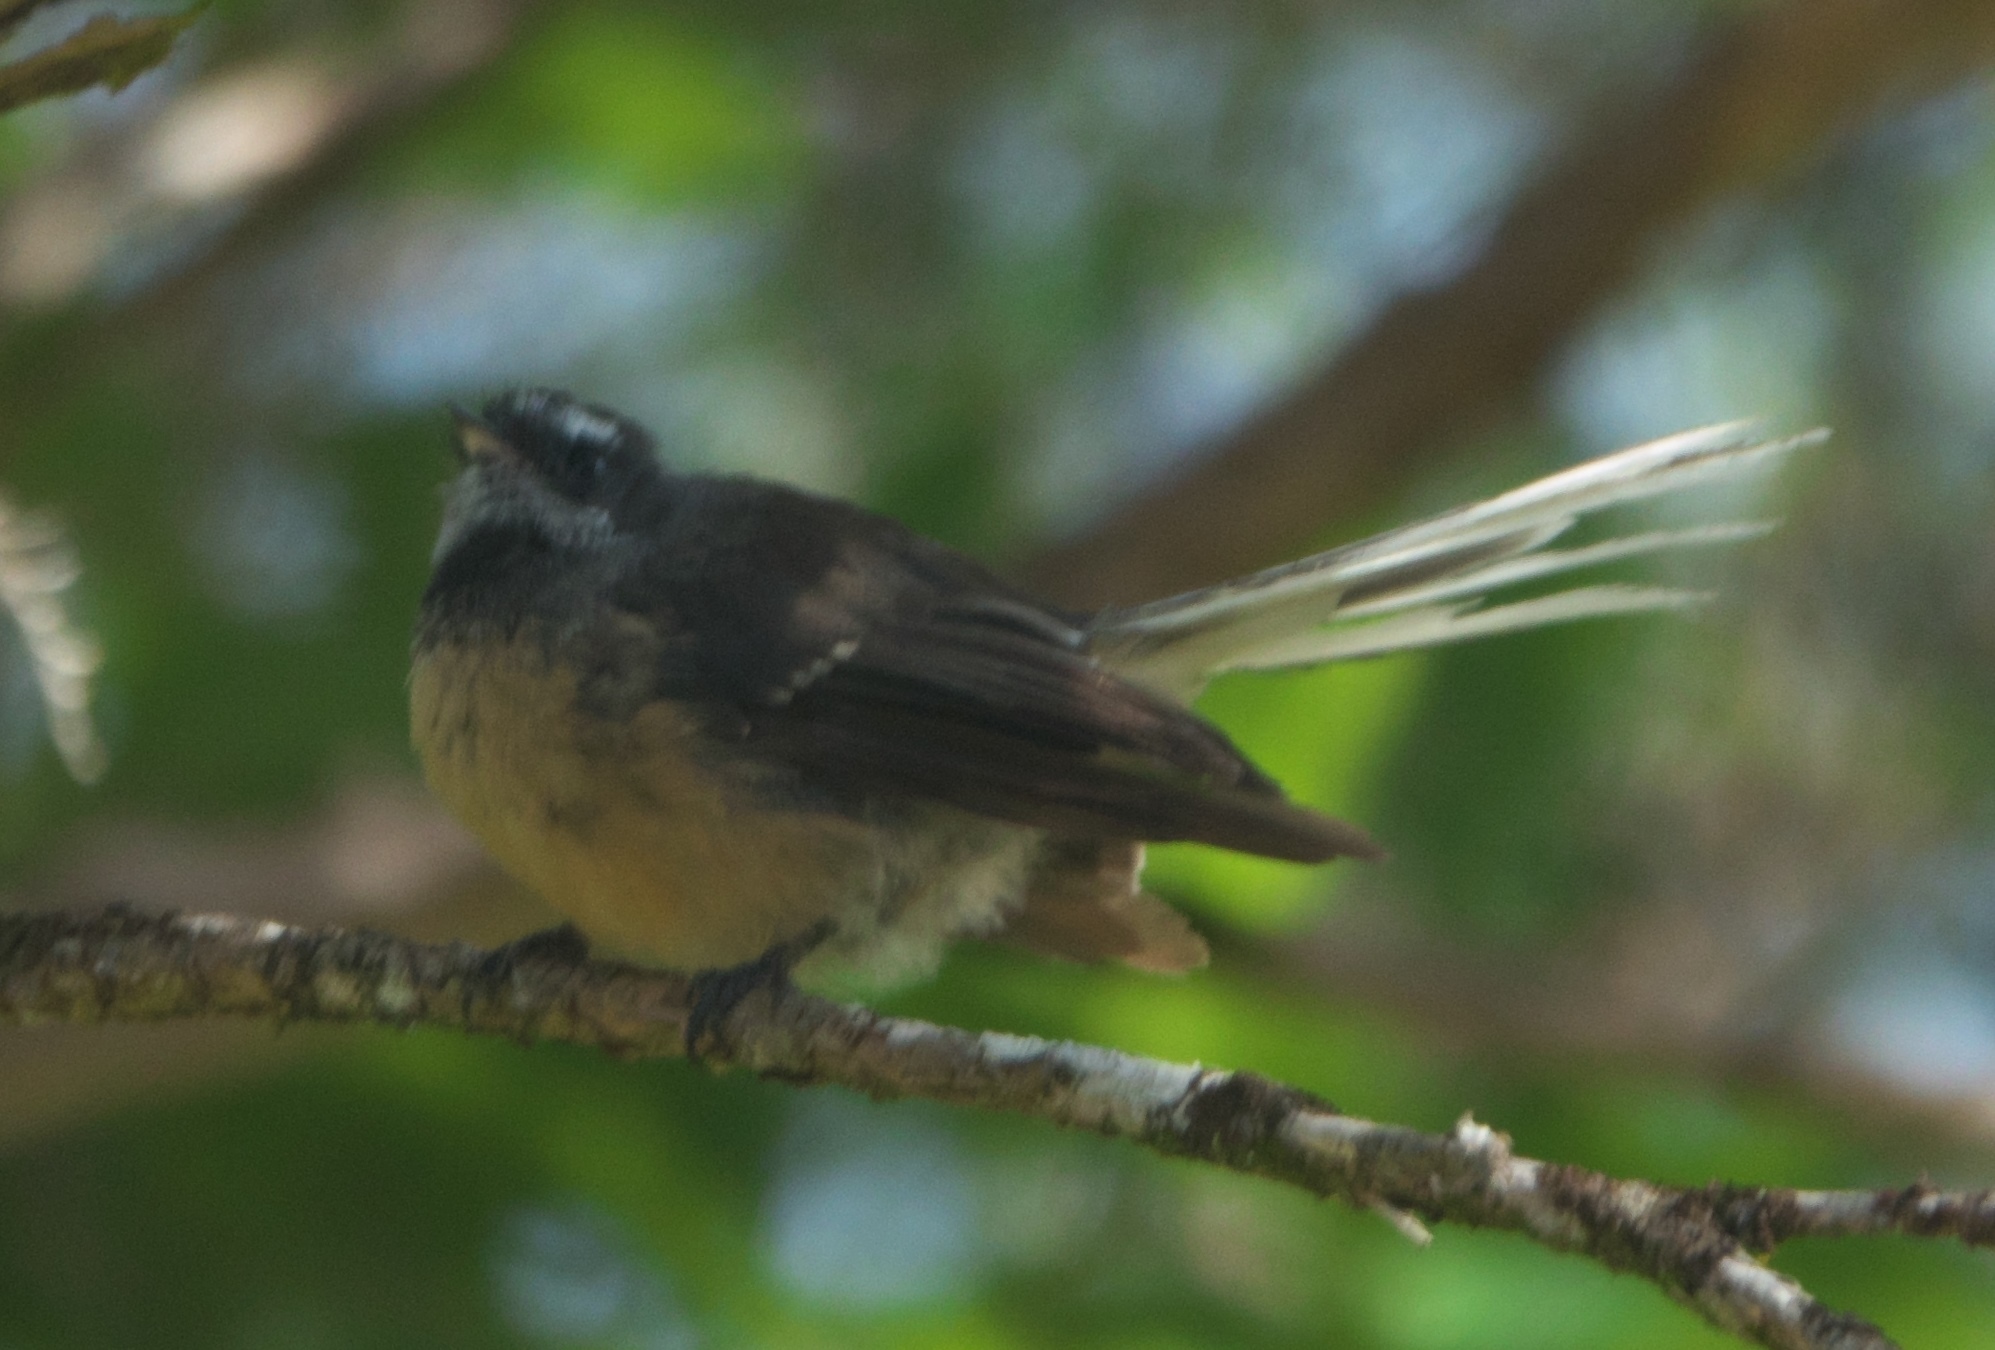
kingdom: Animalia
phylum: Chordata
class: Aves
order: Passeriformes
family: Rhipiduridae
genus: Rhipidura
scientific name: Rhipidura fuliginosa
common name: New zealand fantail
